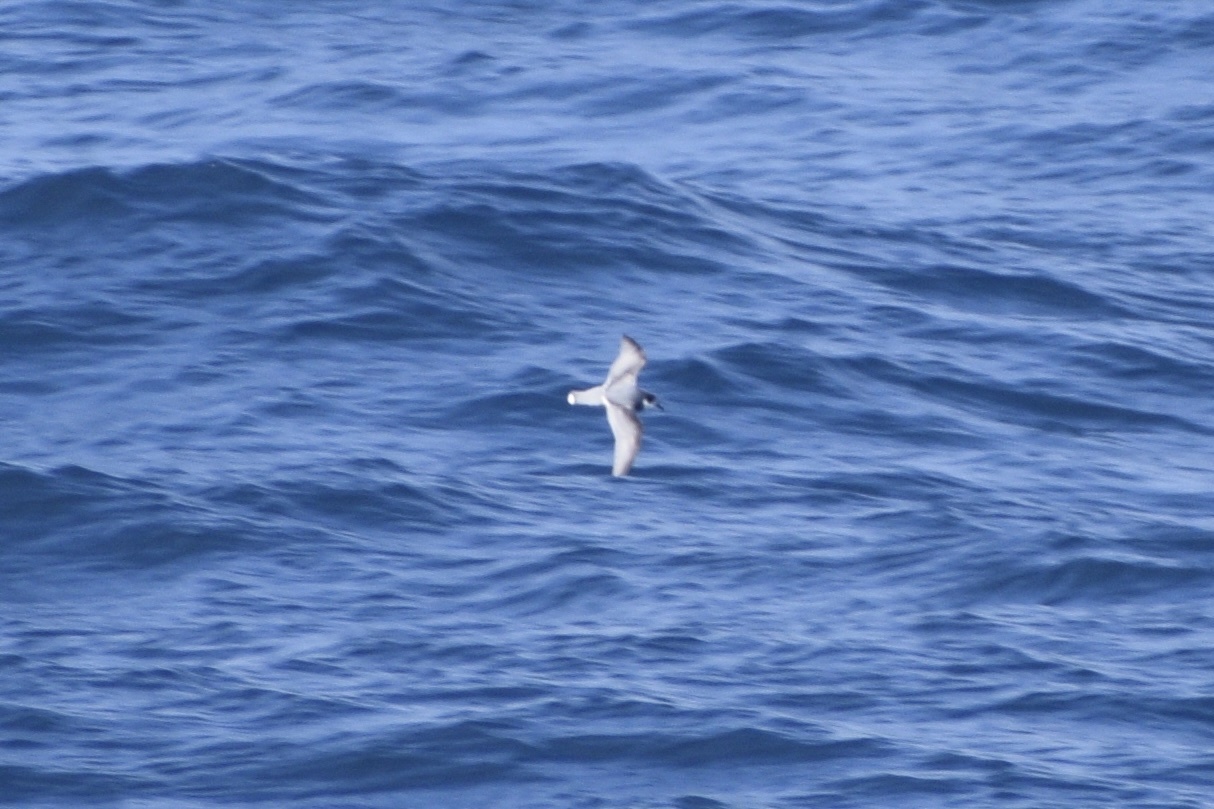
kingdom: Animalia
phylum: Chordata
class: Aves
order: Procellariiformes
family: Procellariidae
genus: Halobaena
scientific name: Halobaena caerulea
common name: Blue petrel
